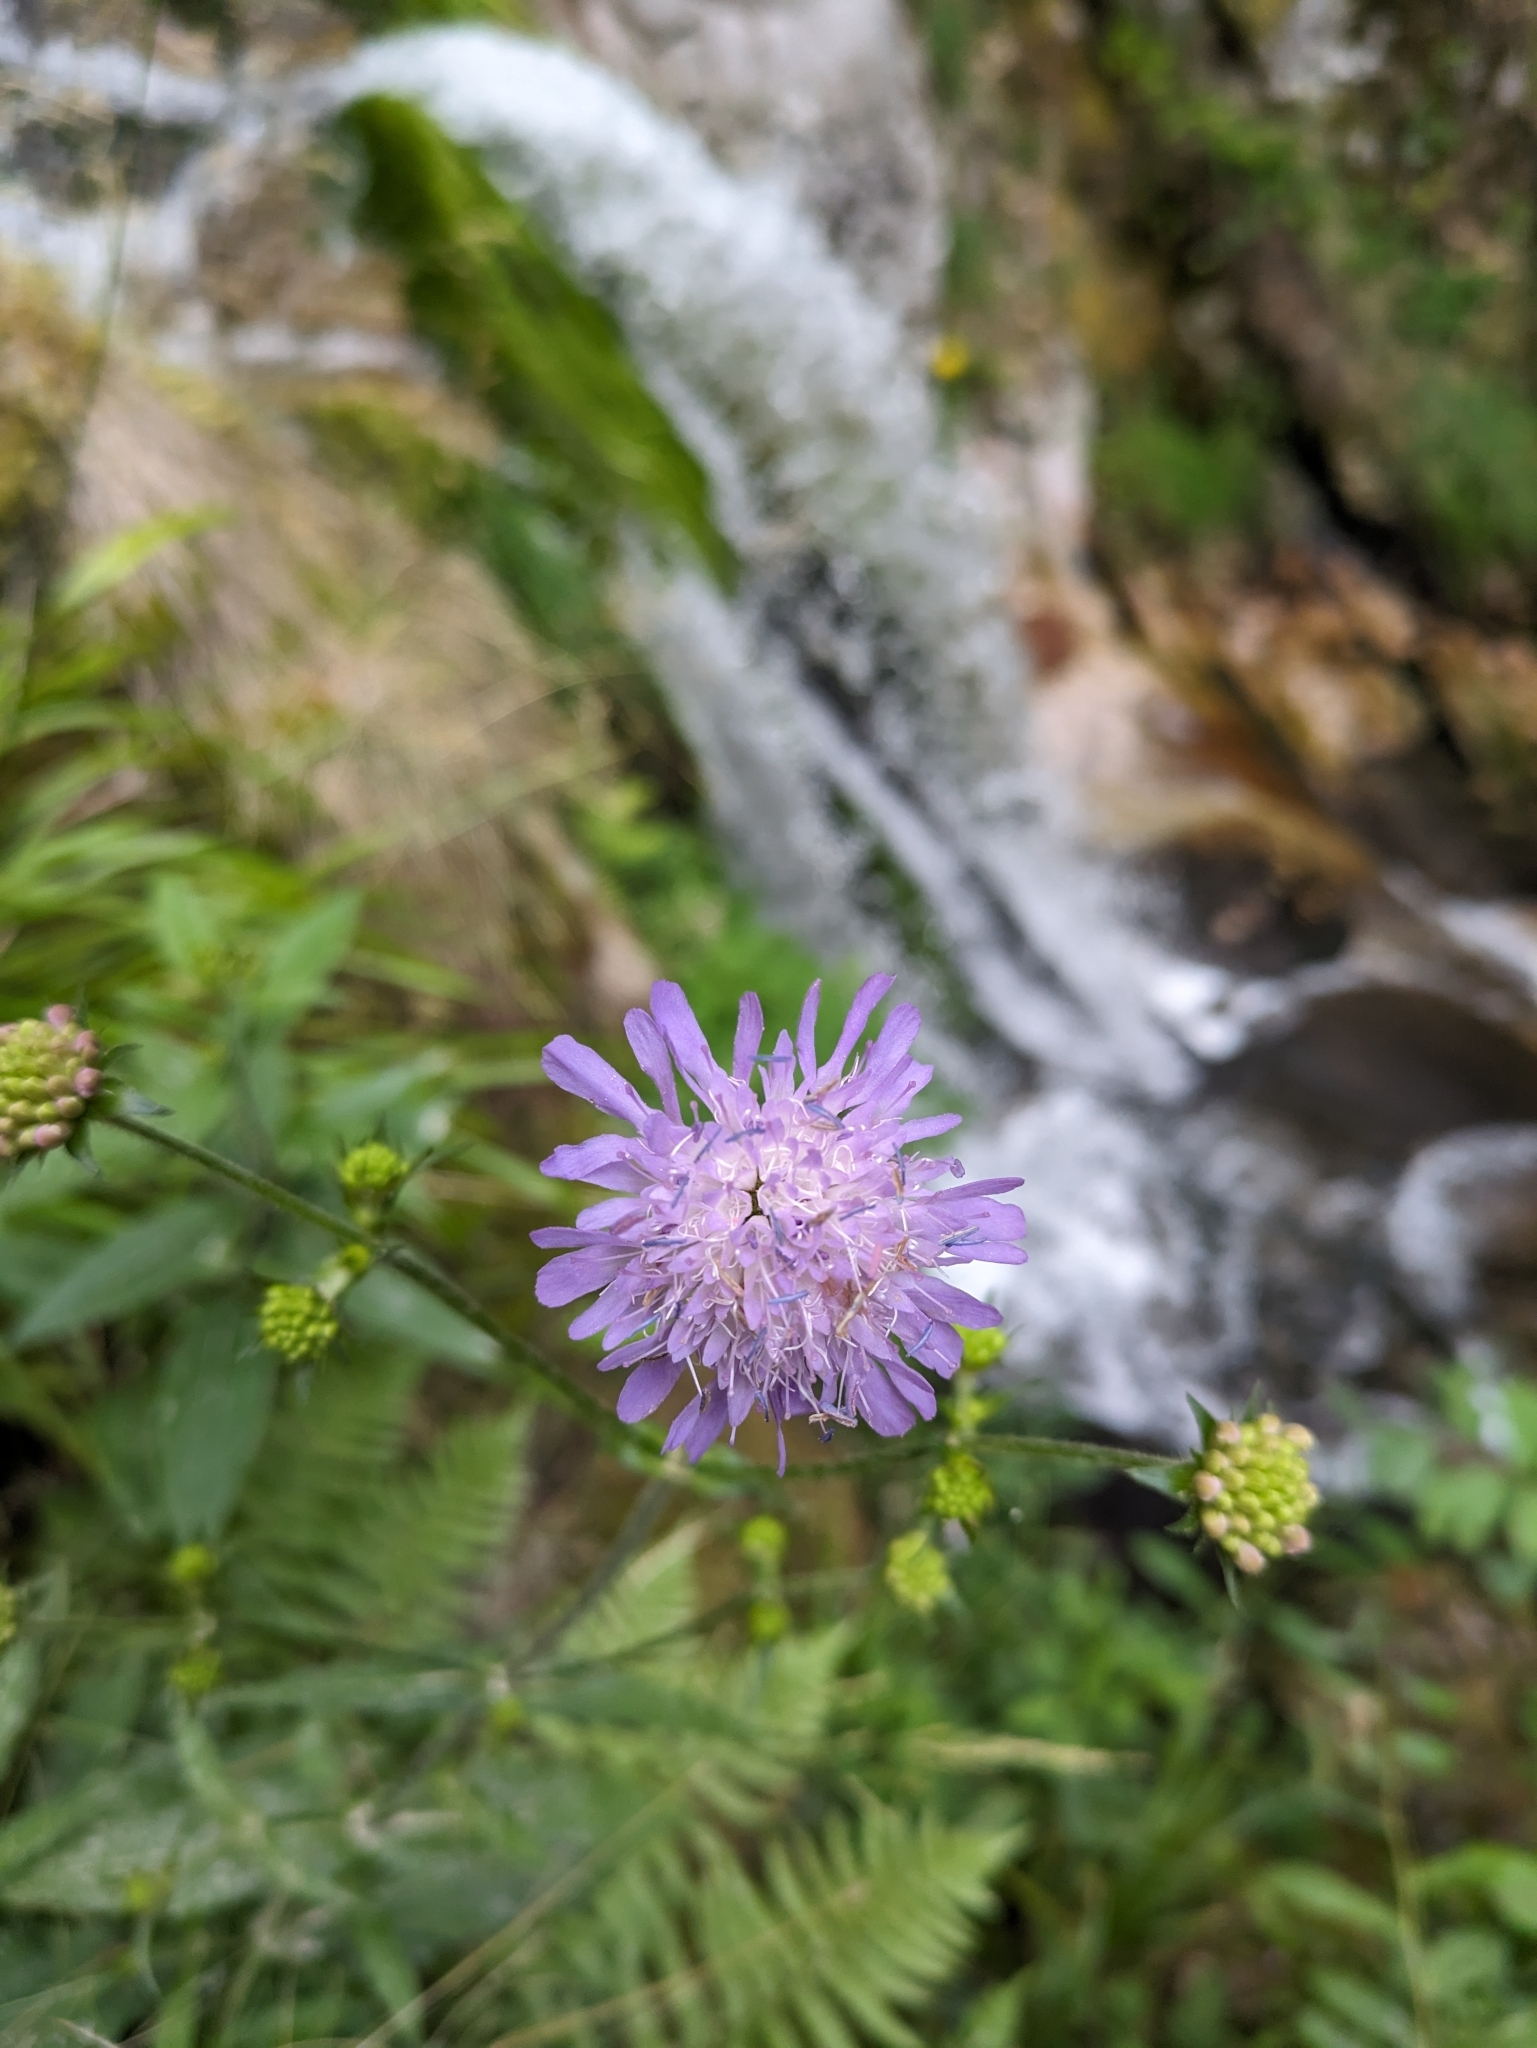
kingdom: Plantae
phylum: Tracheophyta
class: Magnoliopsida
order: Dipsacales
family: Caprifoliaceae
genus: Knautia
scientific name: Knautia dipsacifolia
